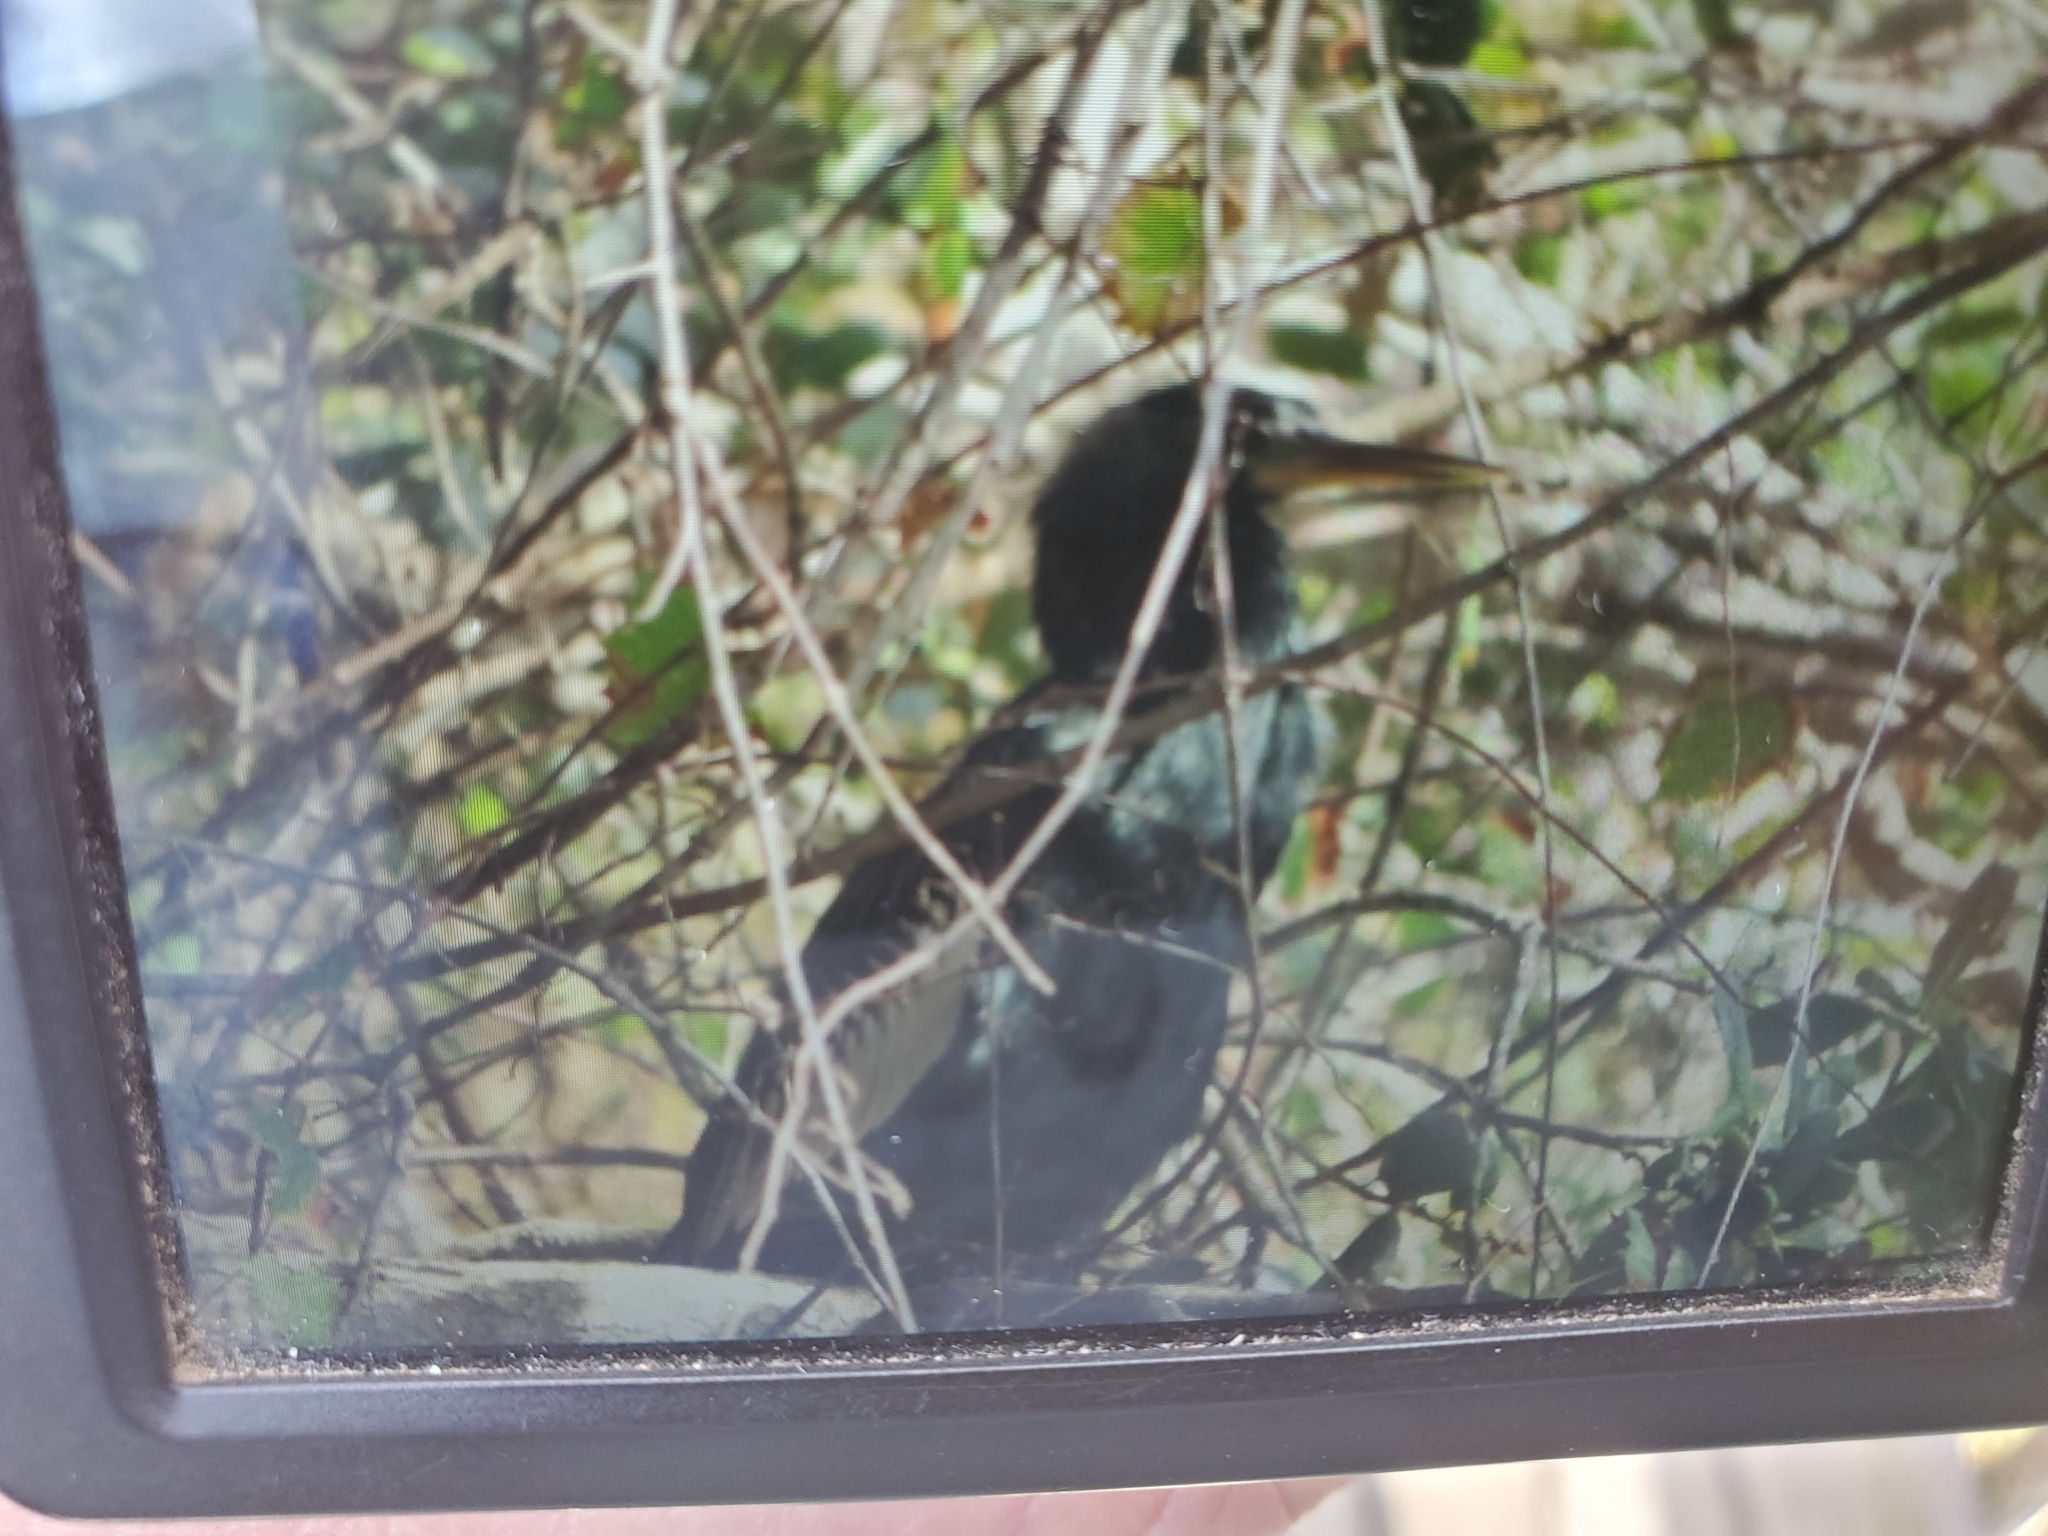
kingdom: Animalia
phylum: Chordata
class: Aves
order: Suliformes
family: Anhingidae
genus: Anhinga
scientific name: Anhinga anhinga
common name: Anhinga
